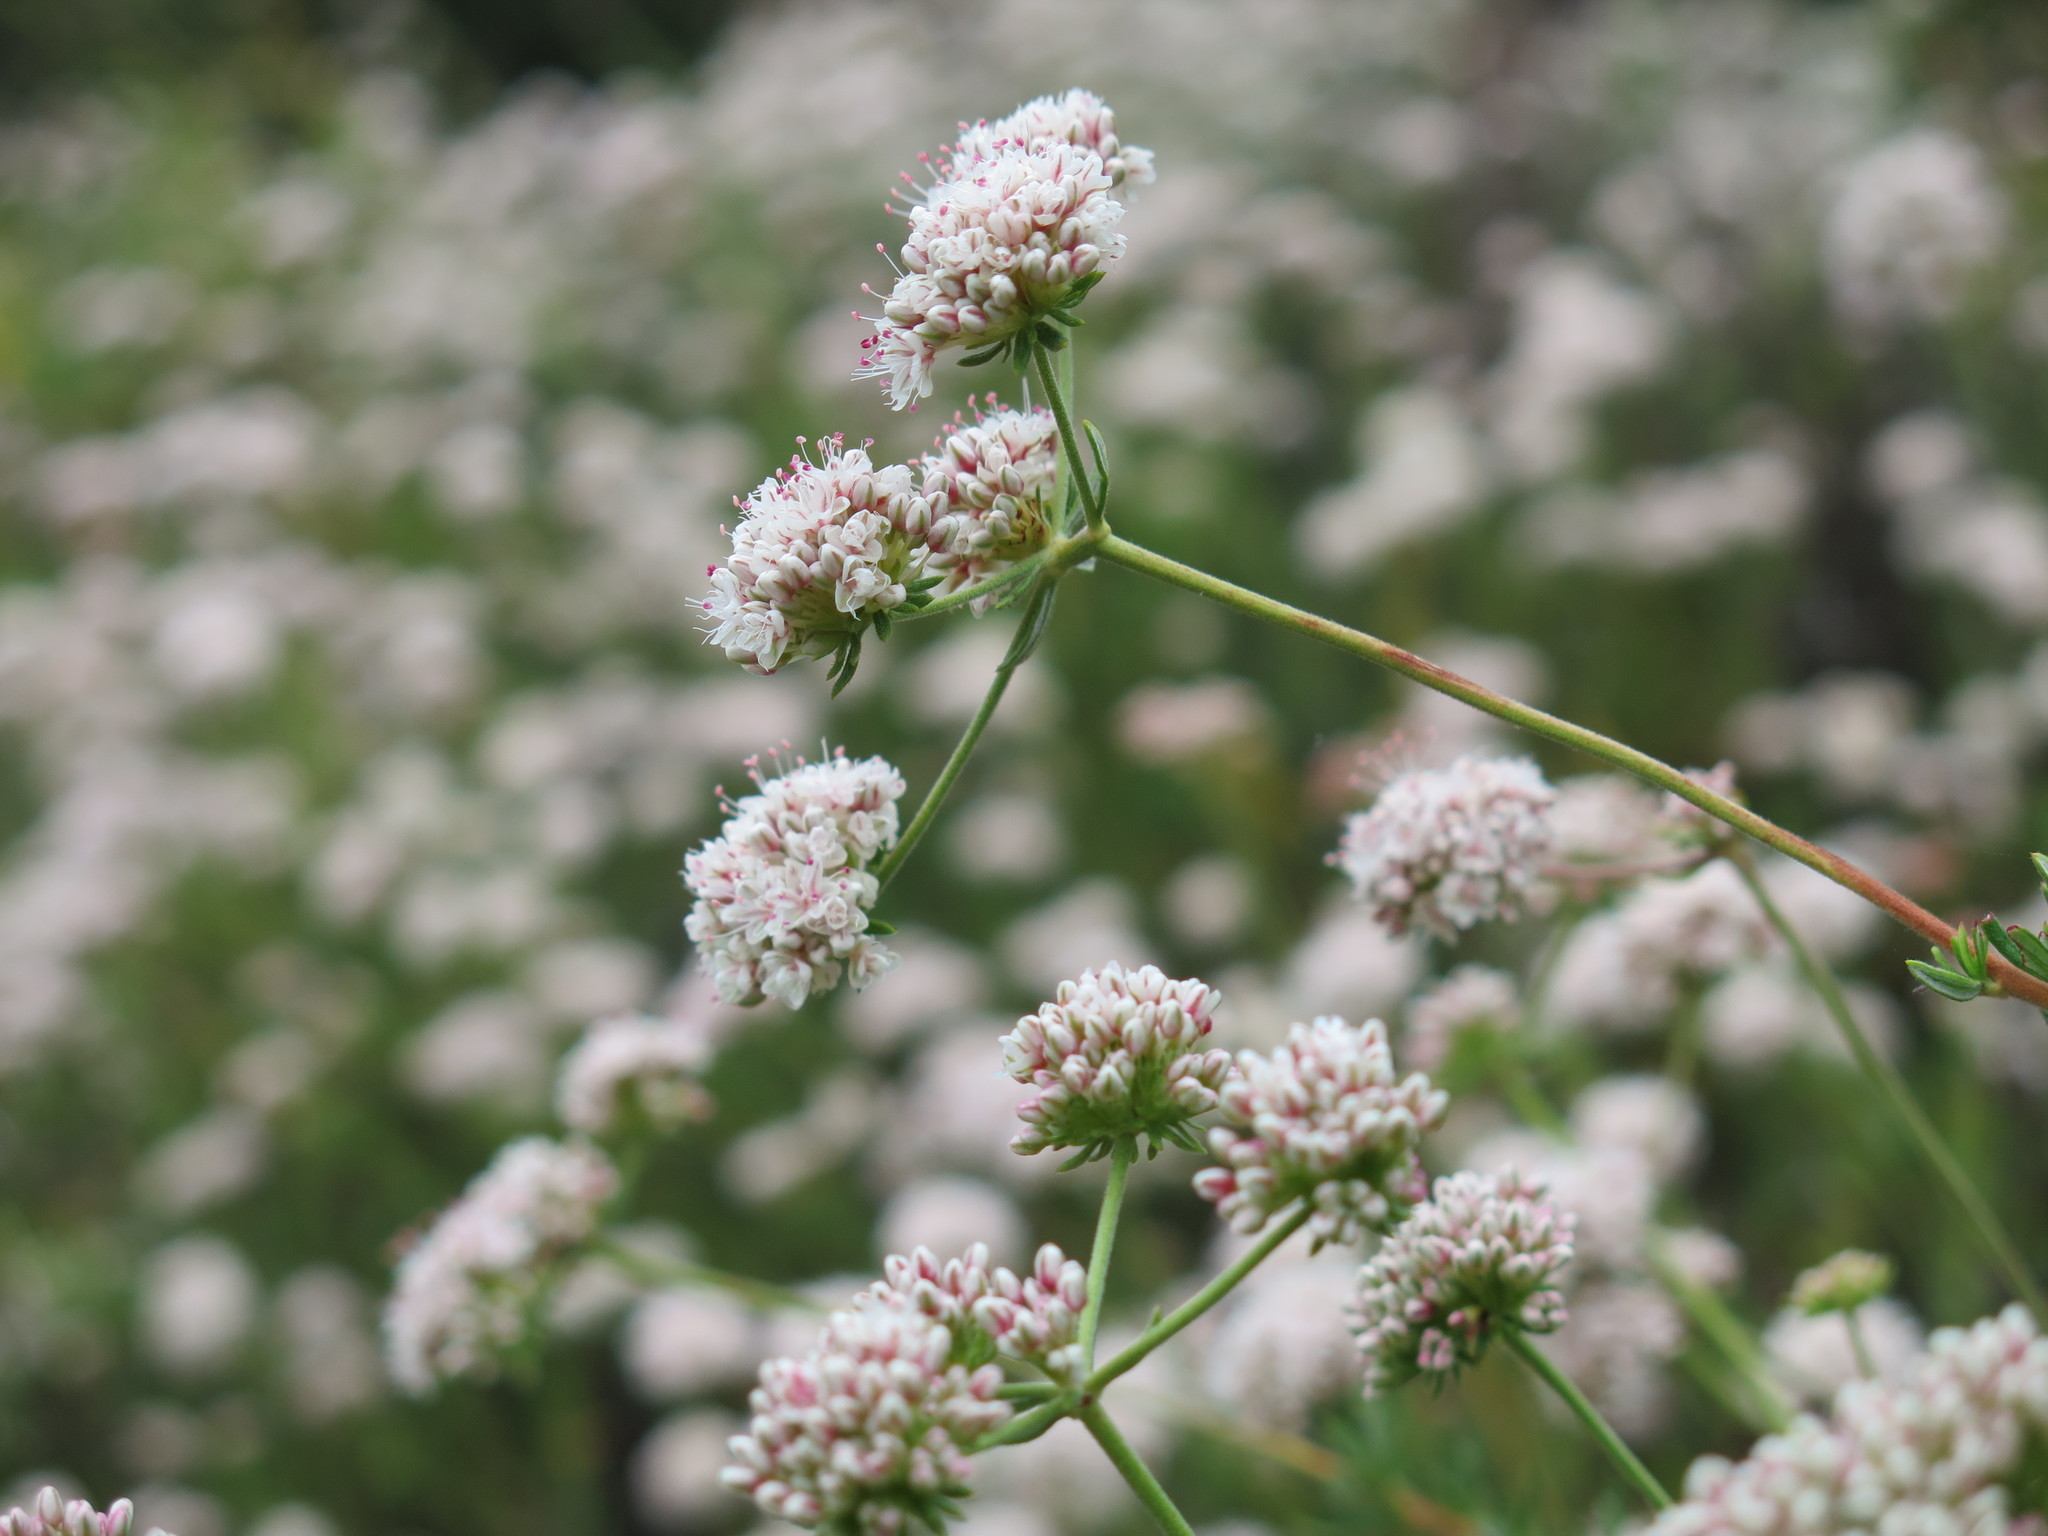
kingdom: Plantae
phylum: Tracheophyta
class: Magnoliopsida
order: Caryophyllales
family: Polygonaceae
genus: Eriogonum
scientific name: Eriogonum fasciculatum
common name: California wild buckwheat
